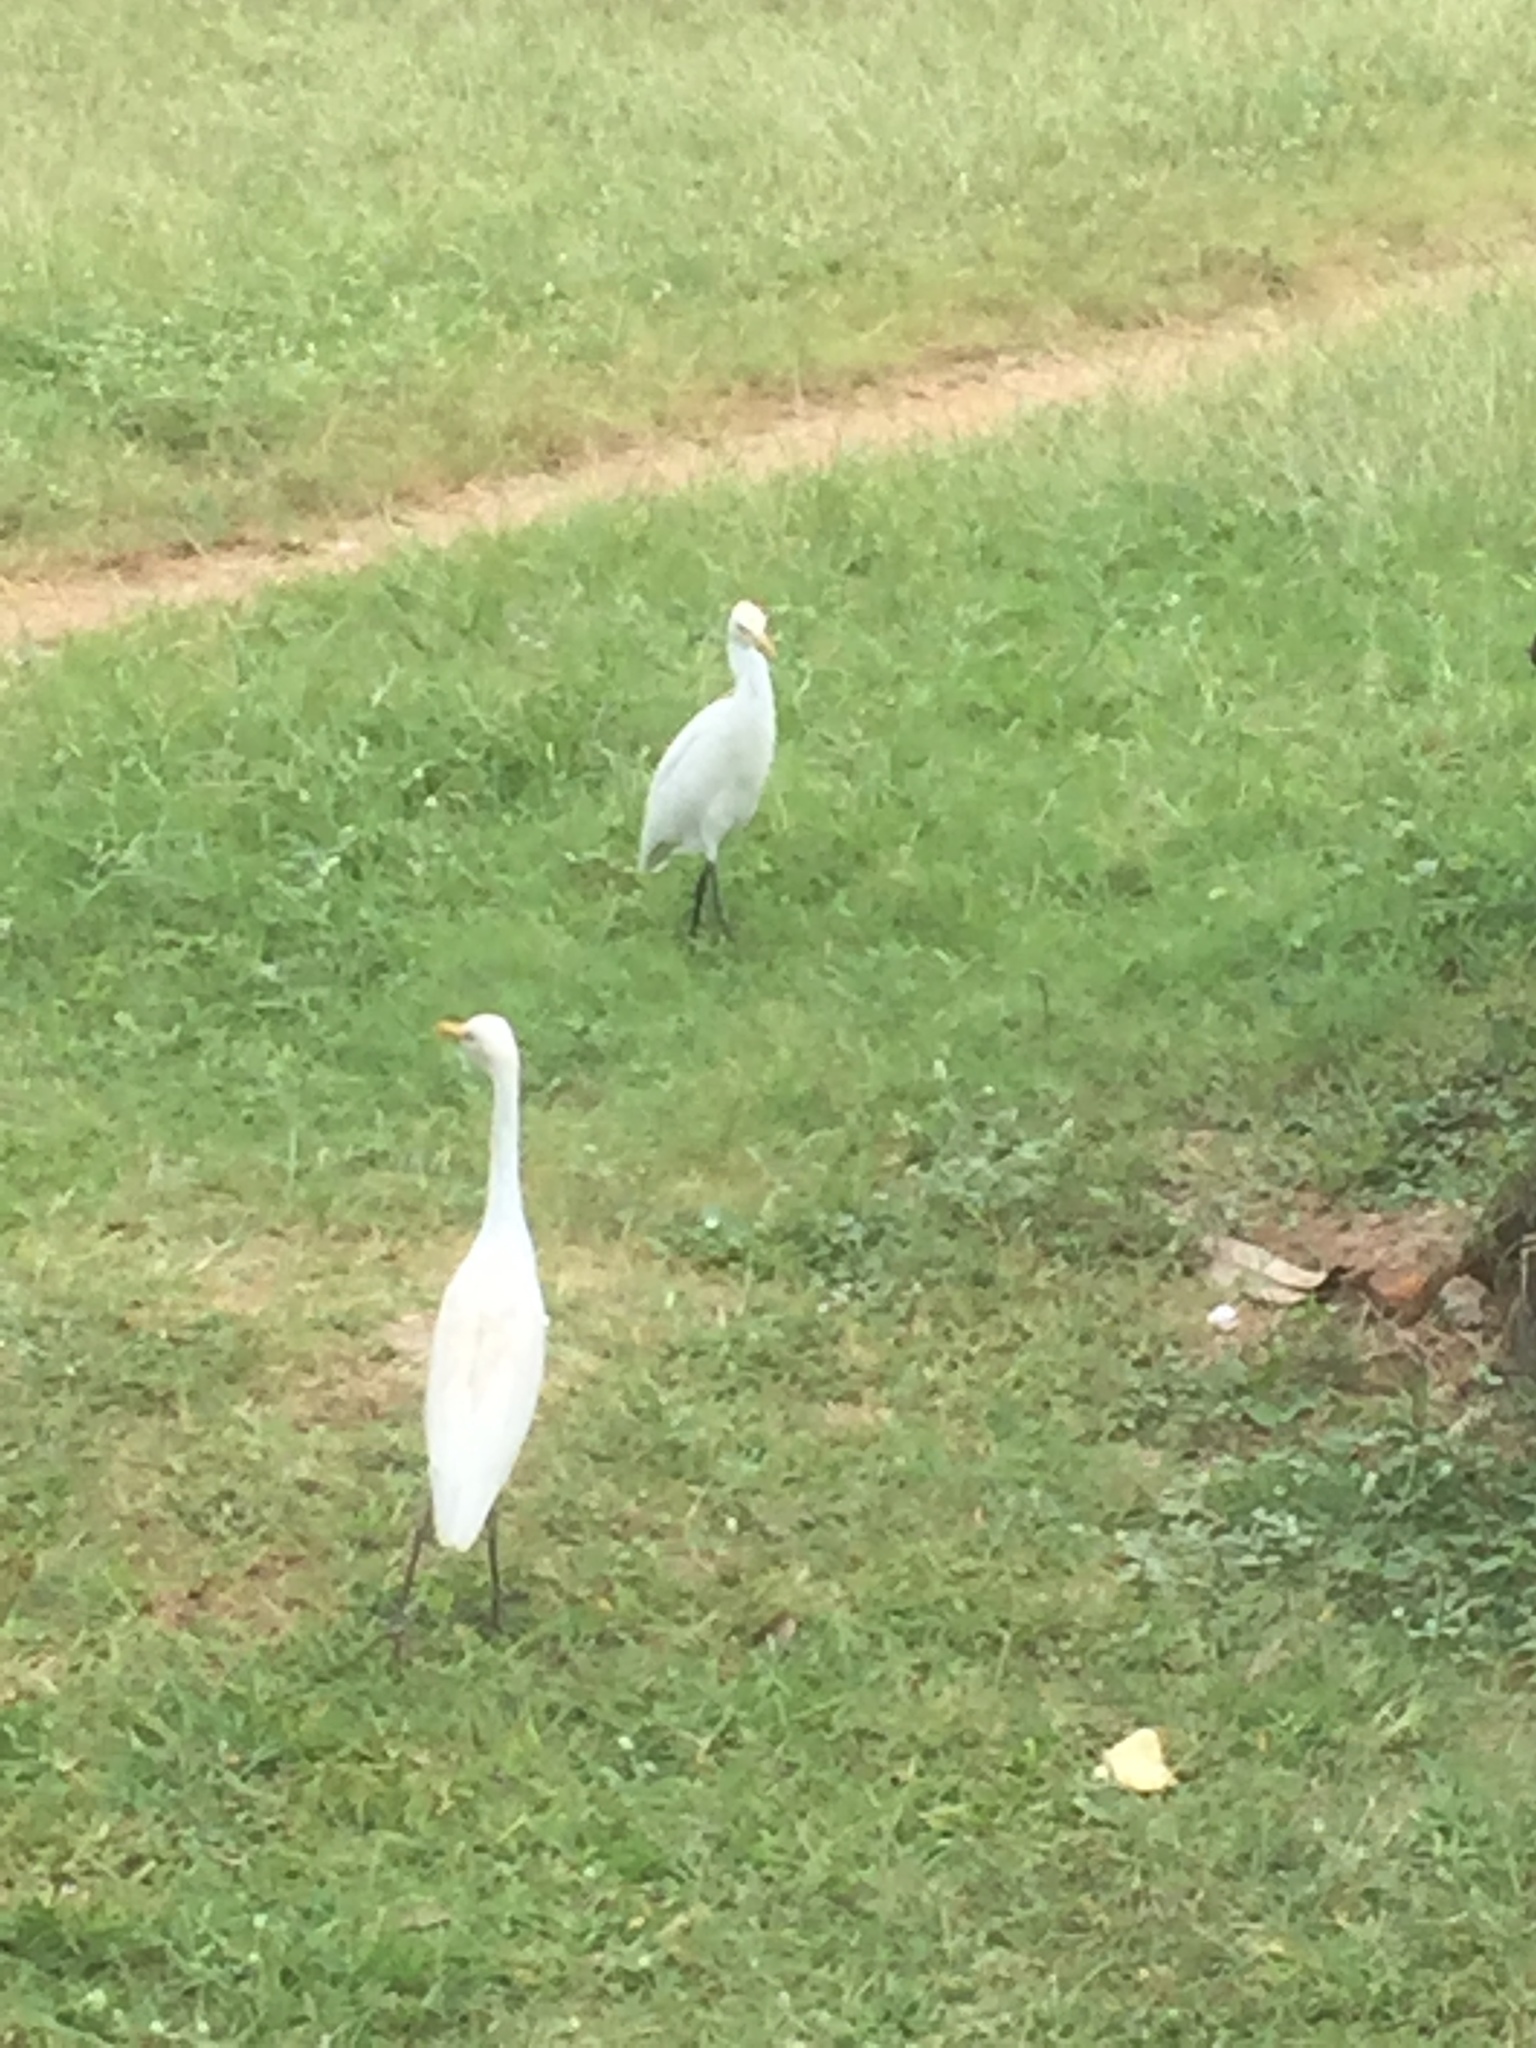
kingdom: Animalia
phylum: Chordata
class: Aves
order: Pelecaniformes
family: Ardeidae
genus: Bubulcus
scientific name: Bubulcus coromandus
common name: Eastern cattle egret
